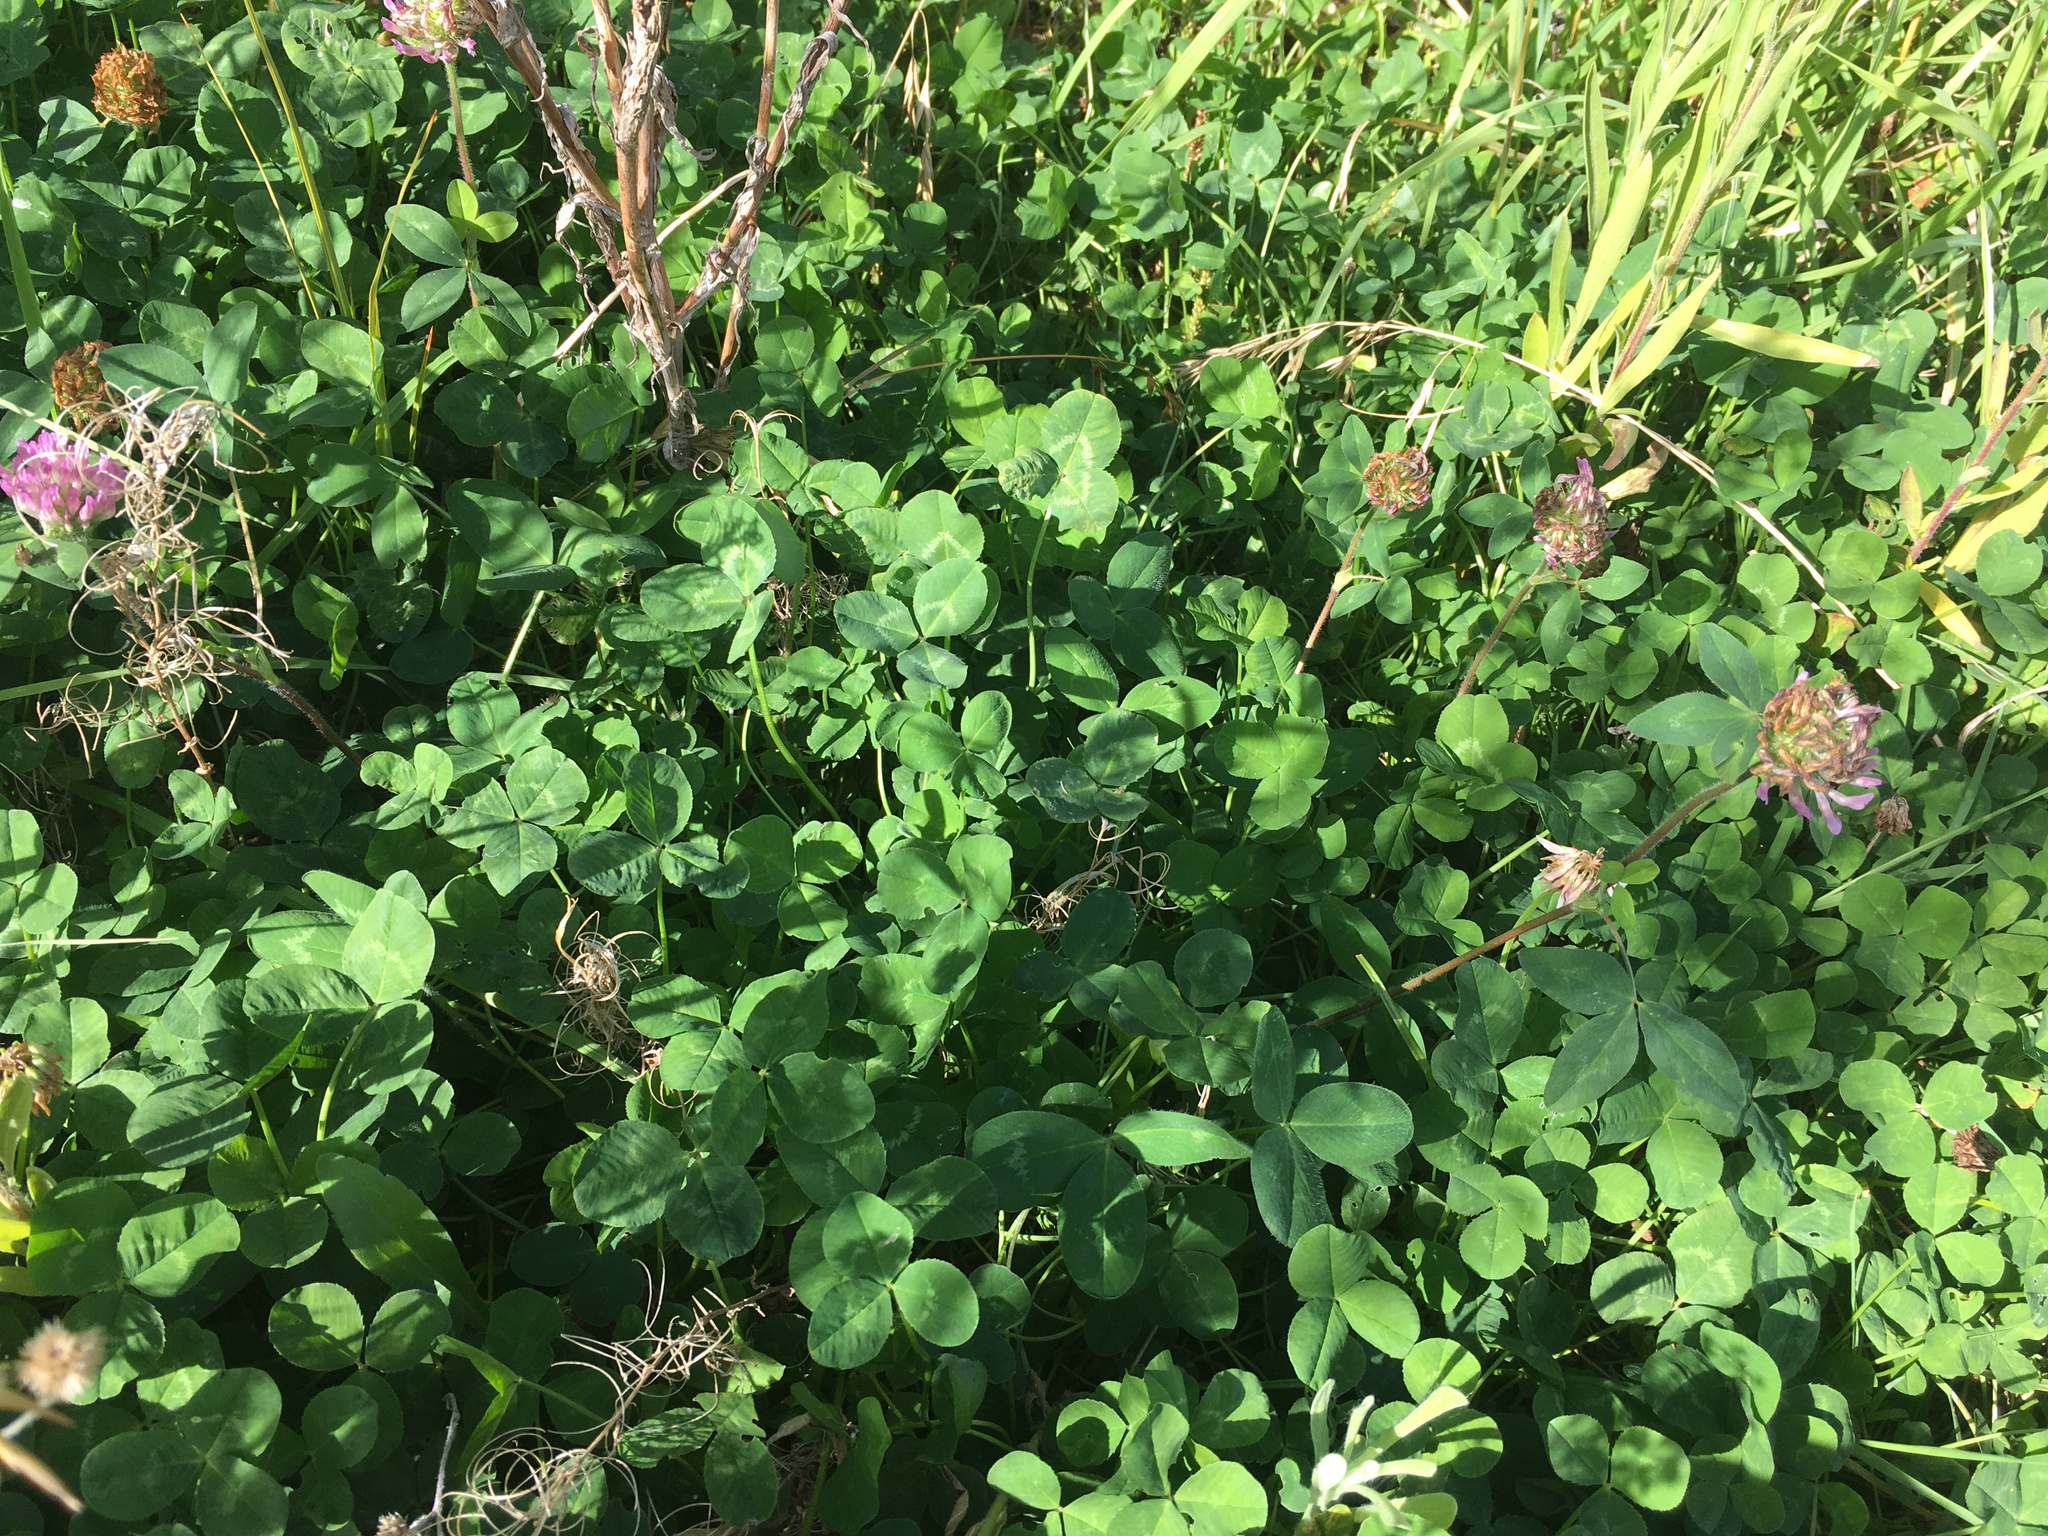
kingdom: Plantae
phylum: Tracheophyta
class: Magnoliopsida
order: Fabales
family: Fabaceae
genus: Trifolium
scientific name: Trifolium pratense
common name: Red clover
